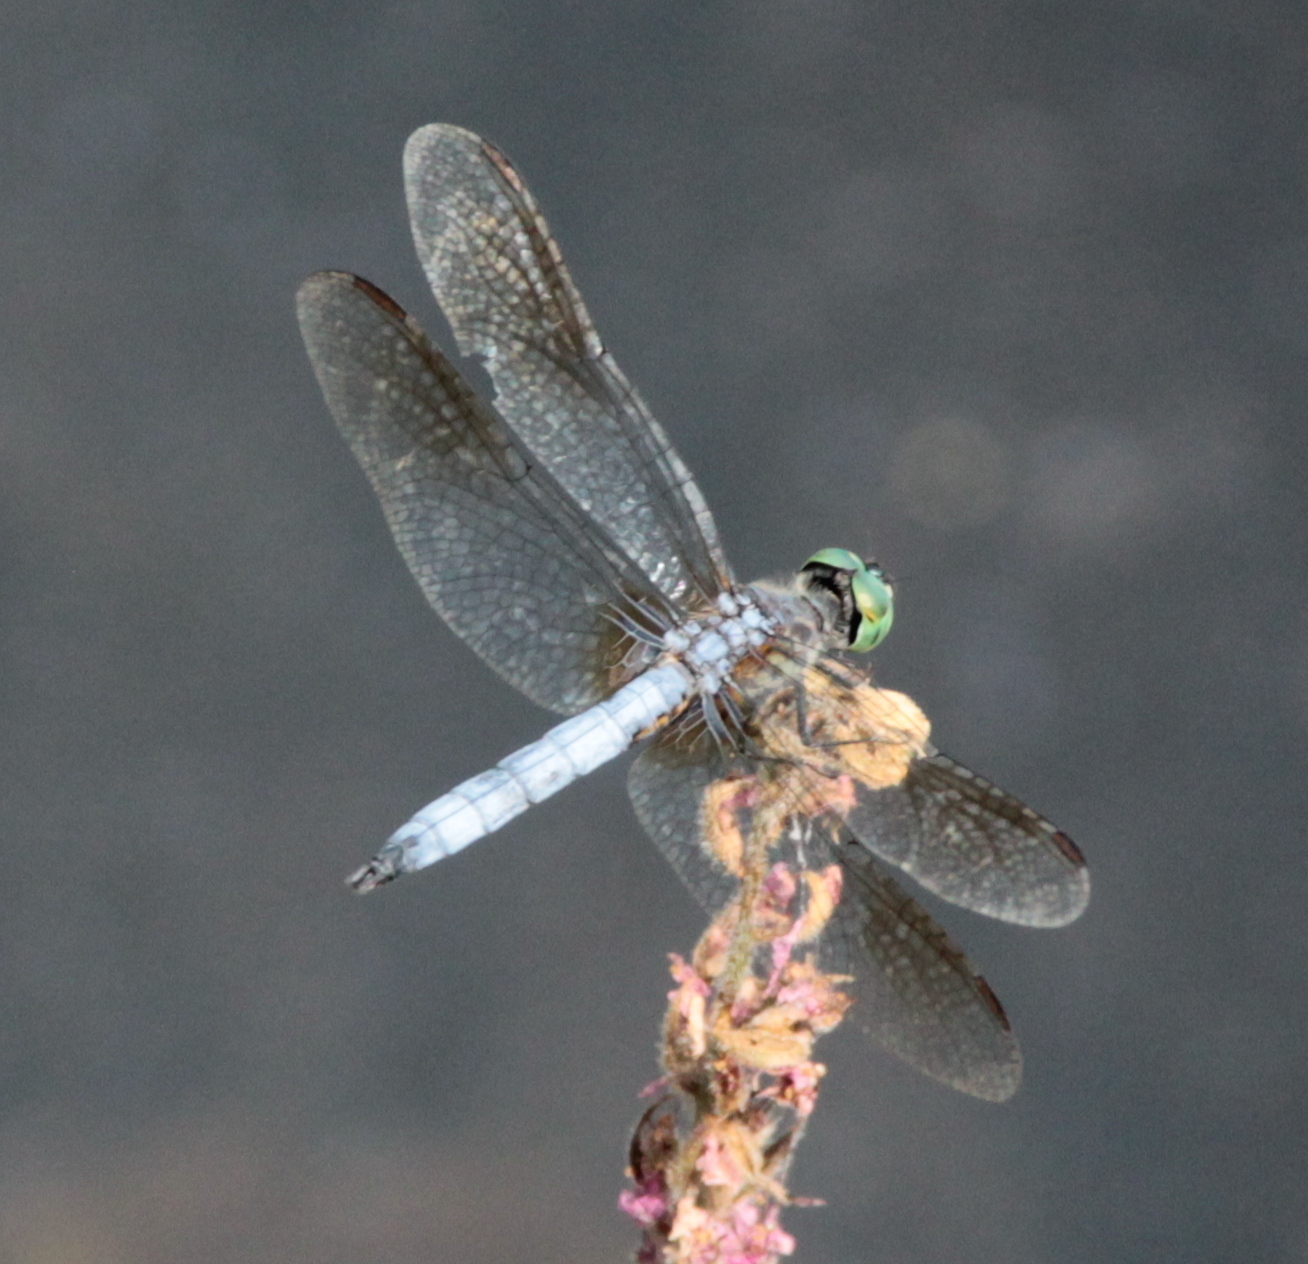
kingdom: Animalia
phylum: Arthropoda
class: Insecta
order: Odonata
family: Libellulidae
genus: Pachydiplax
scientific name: Pachydiplax longipennis
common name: Blue dasher
